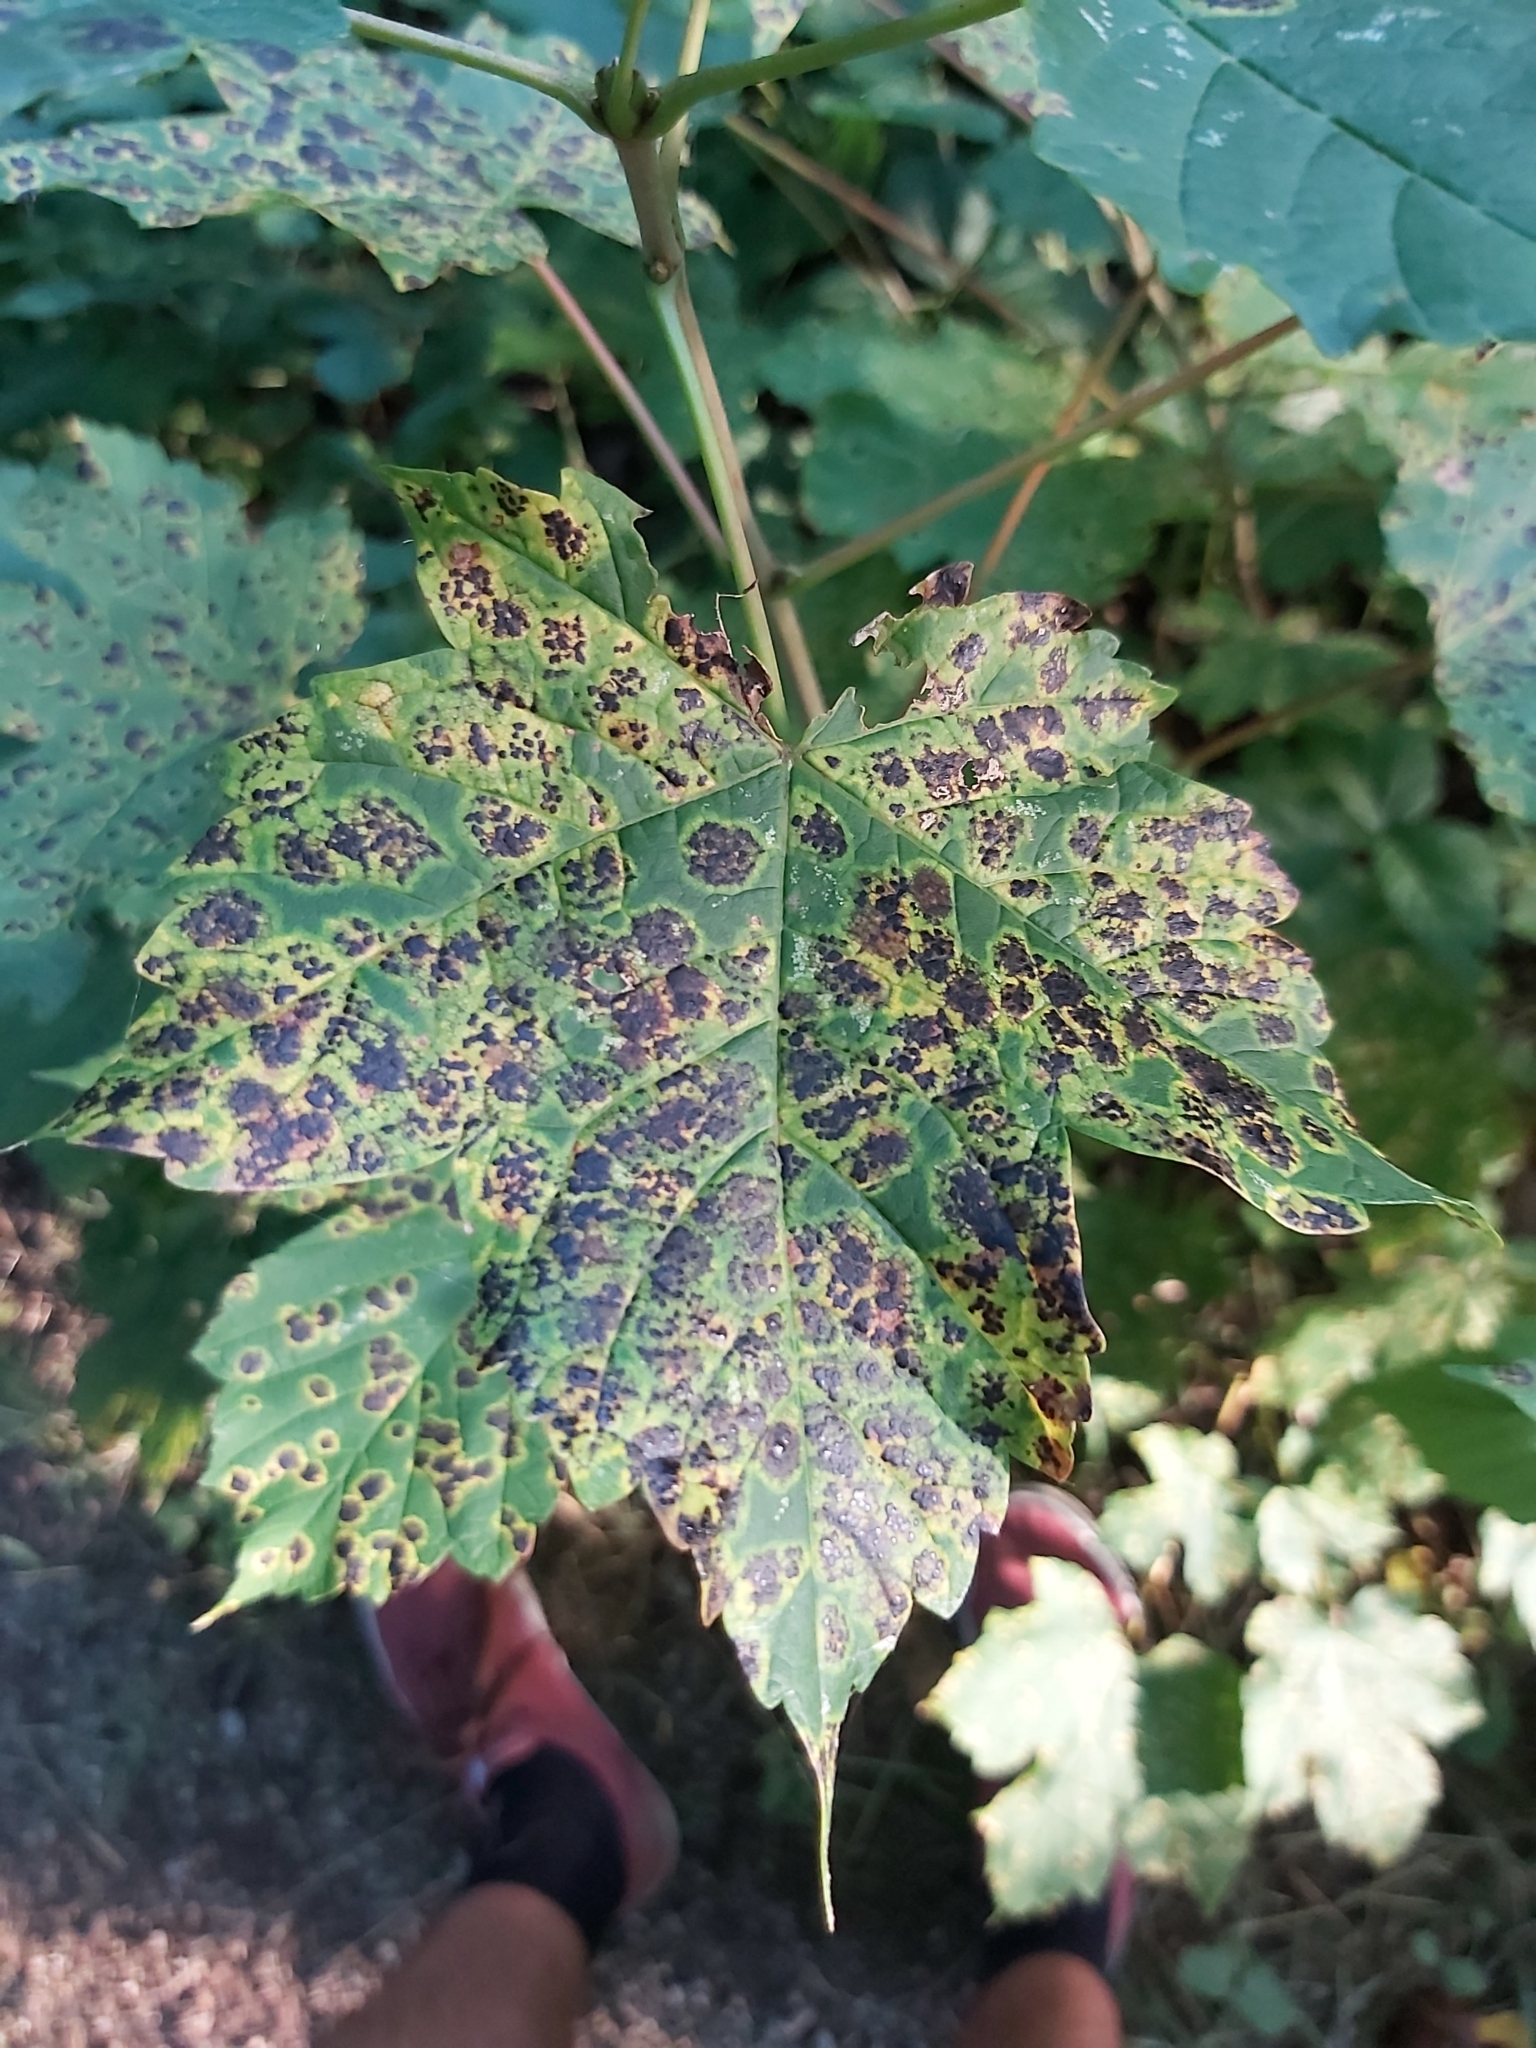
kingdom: Fungi
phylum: Ascomycota
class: Leotiomycetes
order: Rhytismatales
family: Rhytismataceae
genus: Rhytisma
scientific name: Rhytisma acerinum
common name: European tar spot
